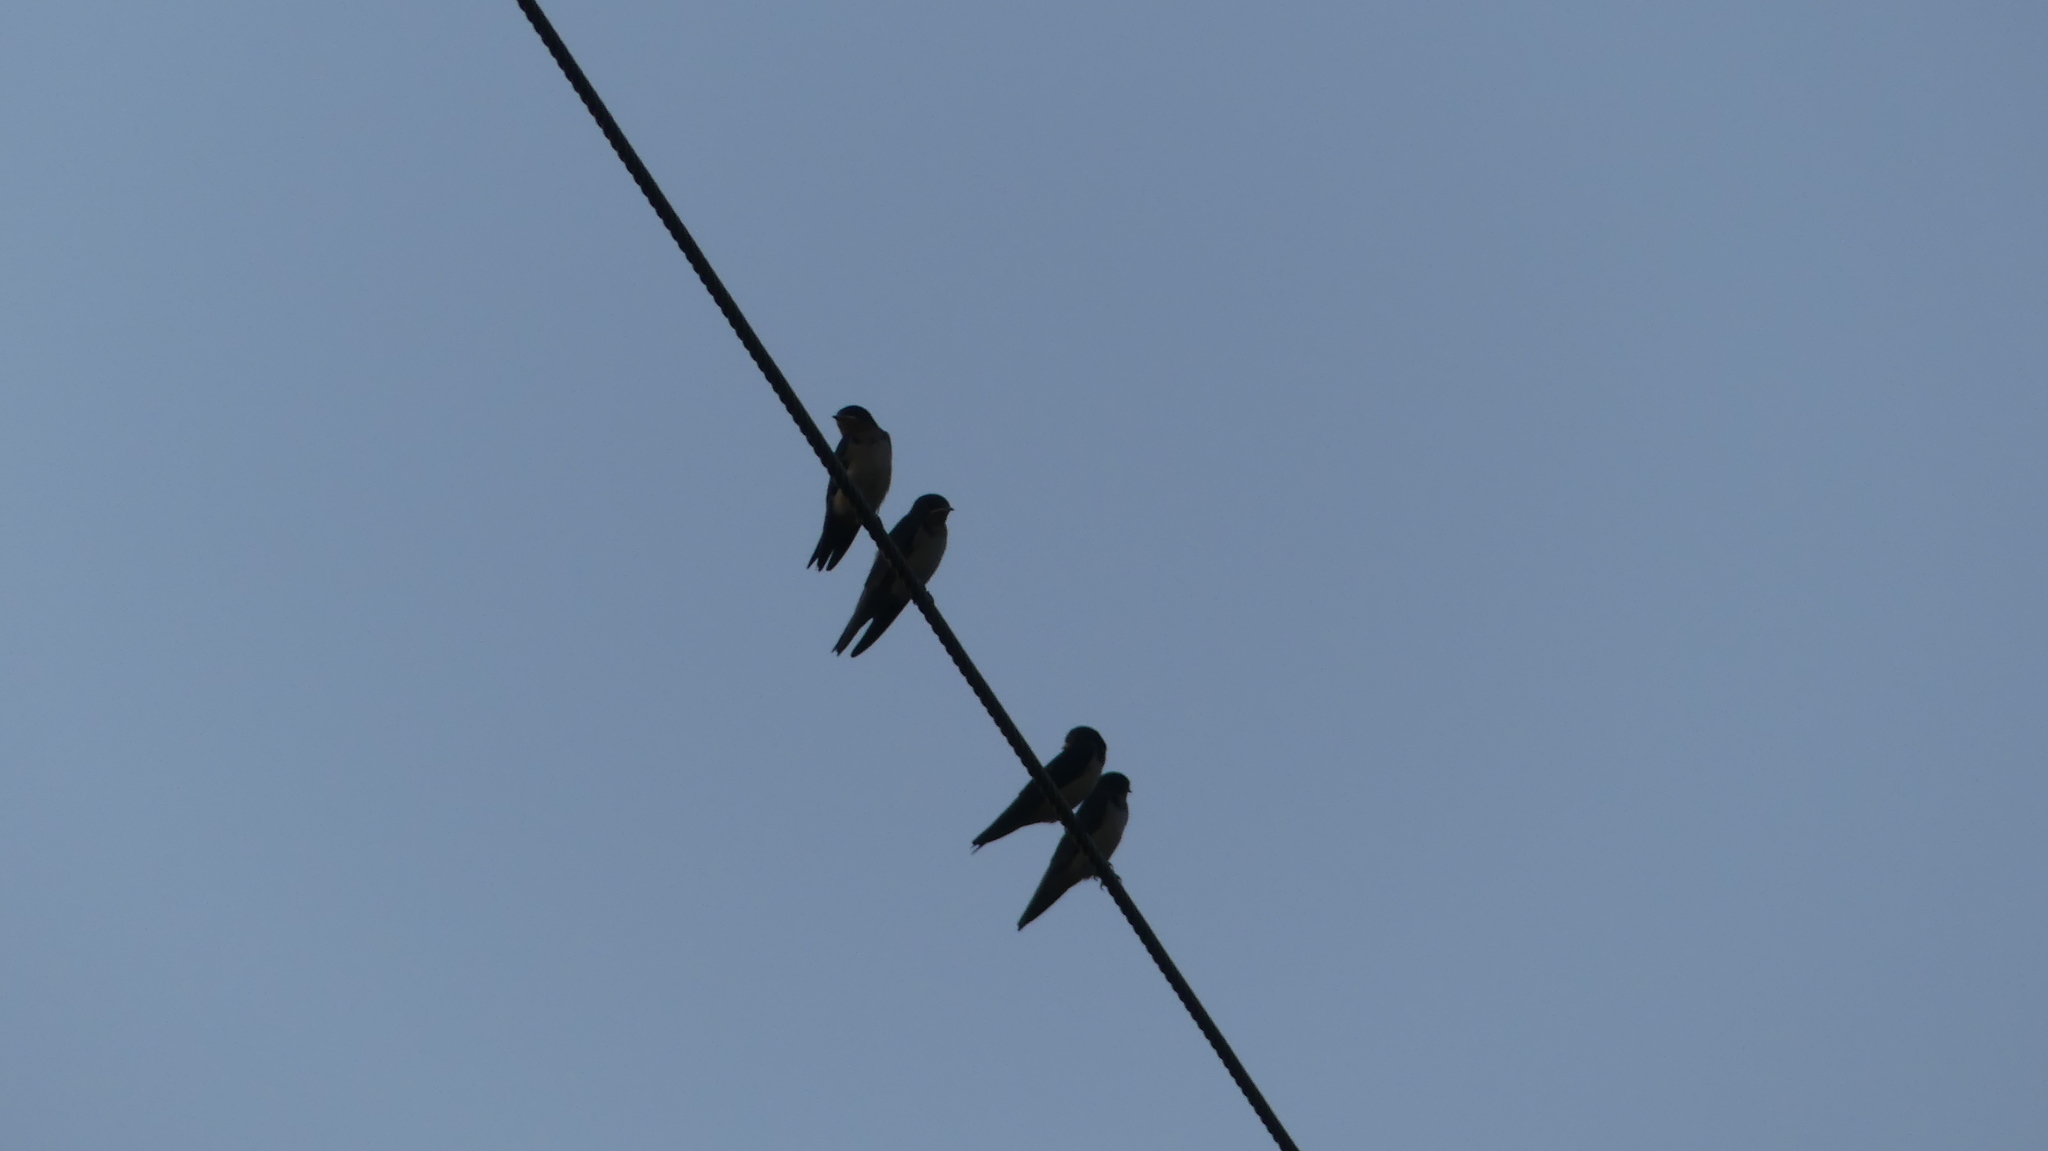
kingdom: Animalia
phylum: Chordata
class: Aves
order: Passeriformes
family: Hirundinidae
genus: Hirundo
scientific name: Hirundo rustica
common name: Barn swallow
